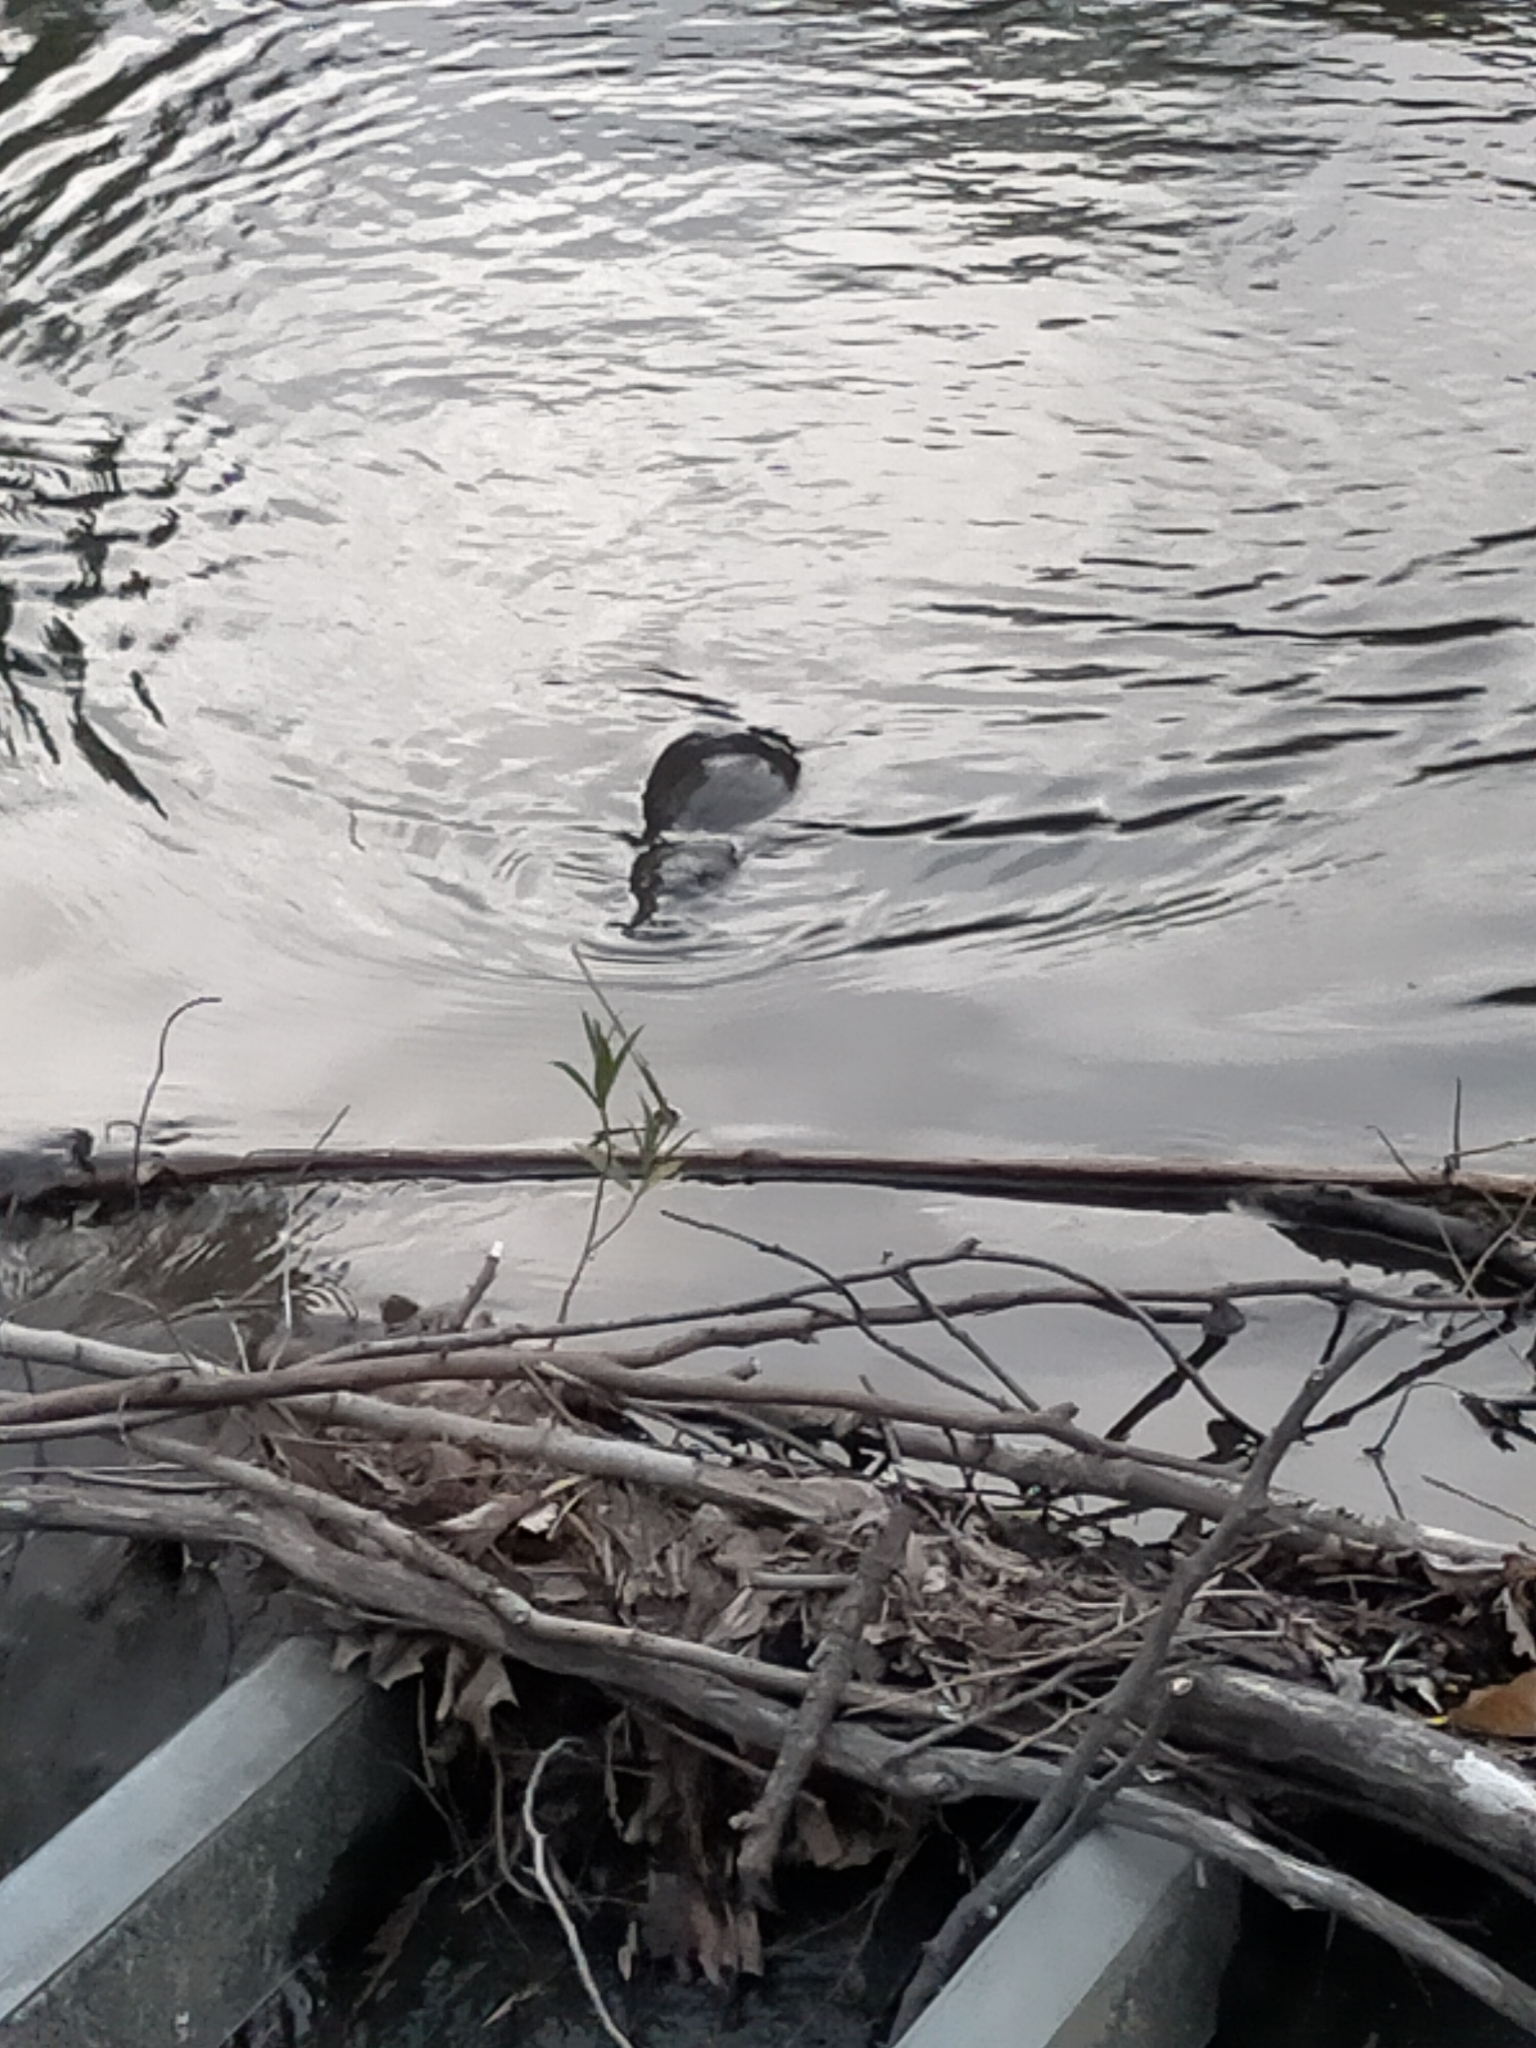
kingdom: Animalia
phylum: Chordata
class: Mammalia
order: Monotremata
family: Ornithorhynchidae
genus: Ornithorhynchus
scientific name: Ornithorhynchus anatinus
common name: Platypus
